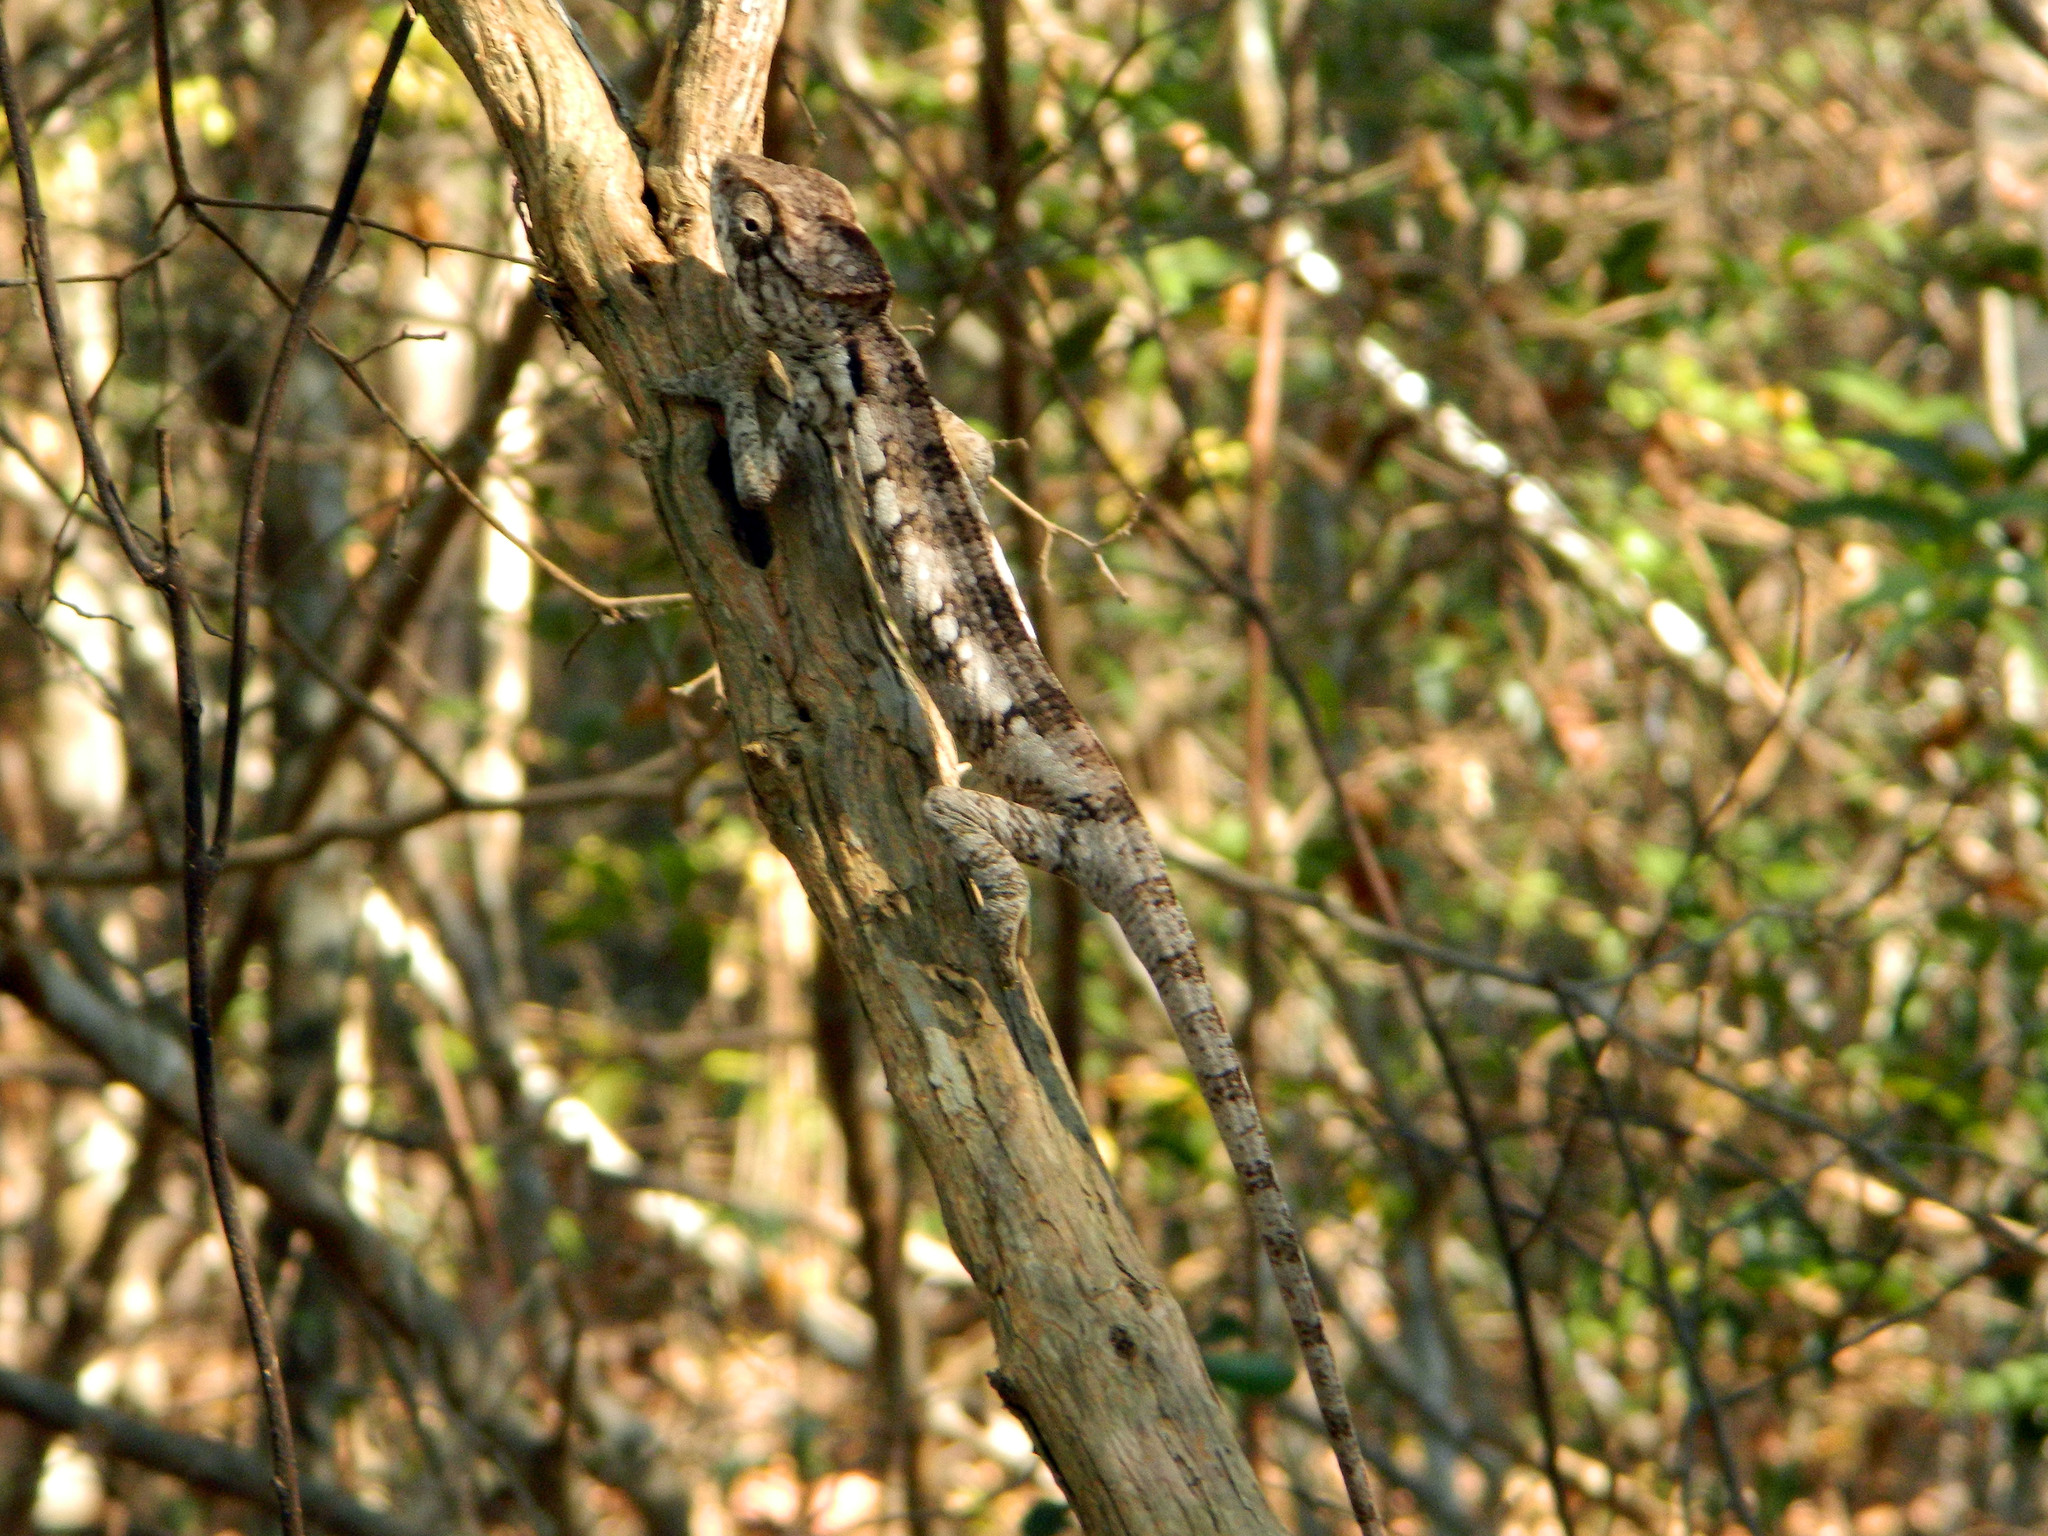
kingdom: Animalia
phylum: Chordata
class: Squamata
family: Chamaeleonidae
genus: Furcifer
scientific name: Furcifer oustaleti
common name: Oustalet's chameleon
